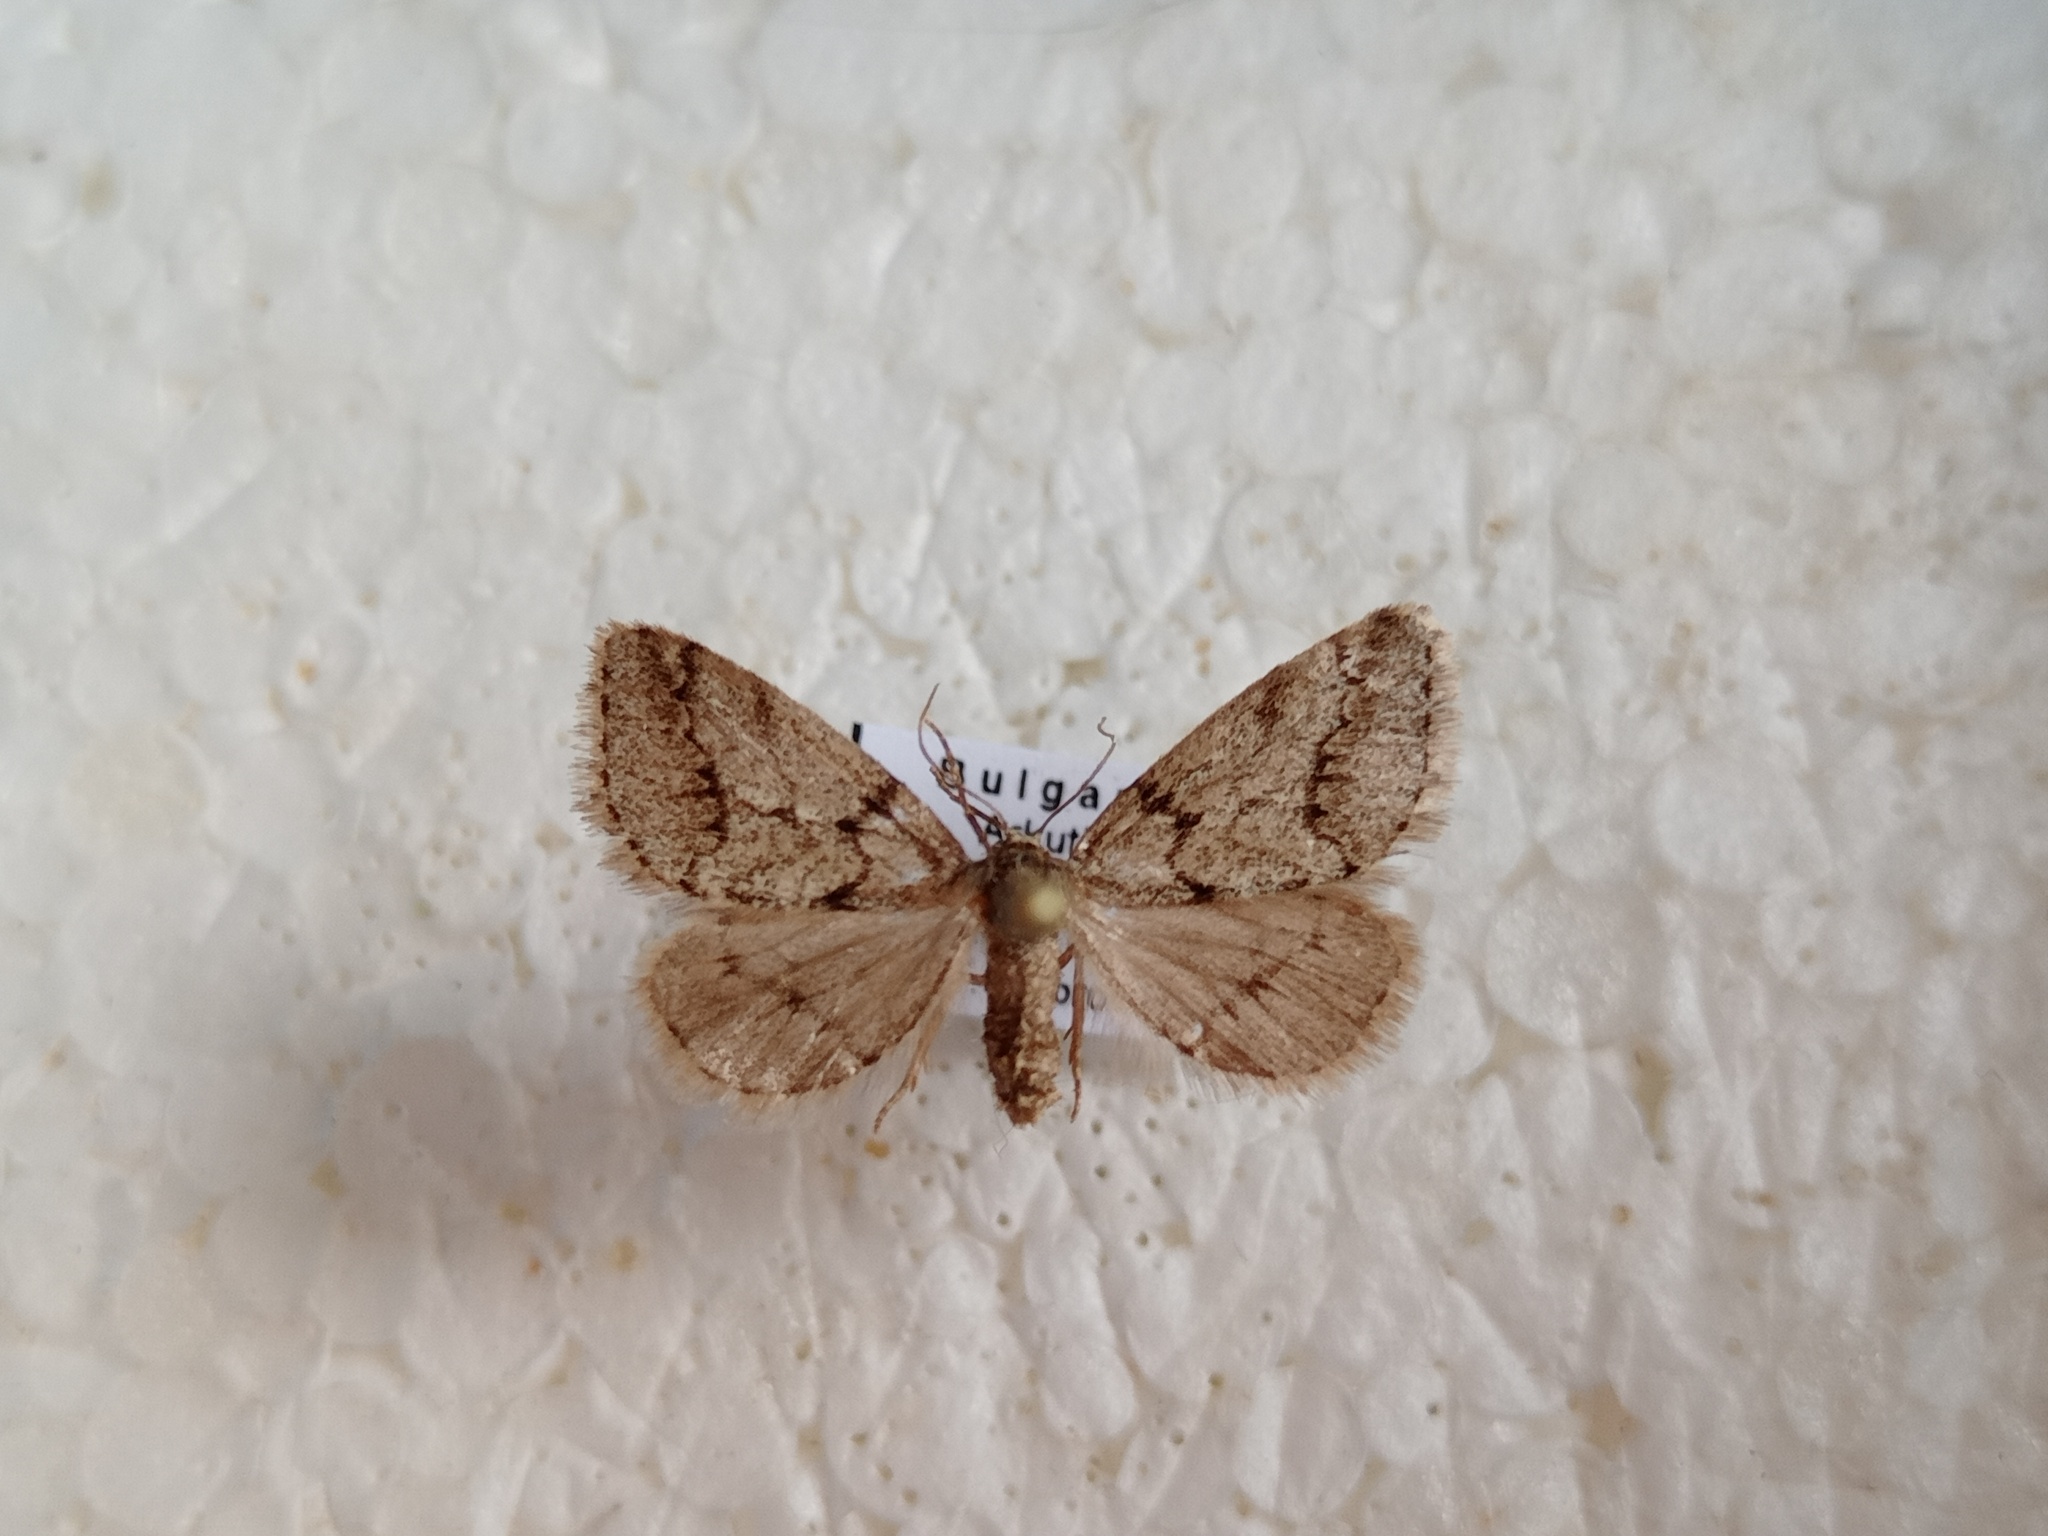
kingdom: Animalia
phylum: Arthropoda
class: Insecta
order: Lepidoptera
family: Geometridae
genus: Eumannia
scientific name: Eumannia oppositaria
